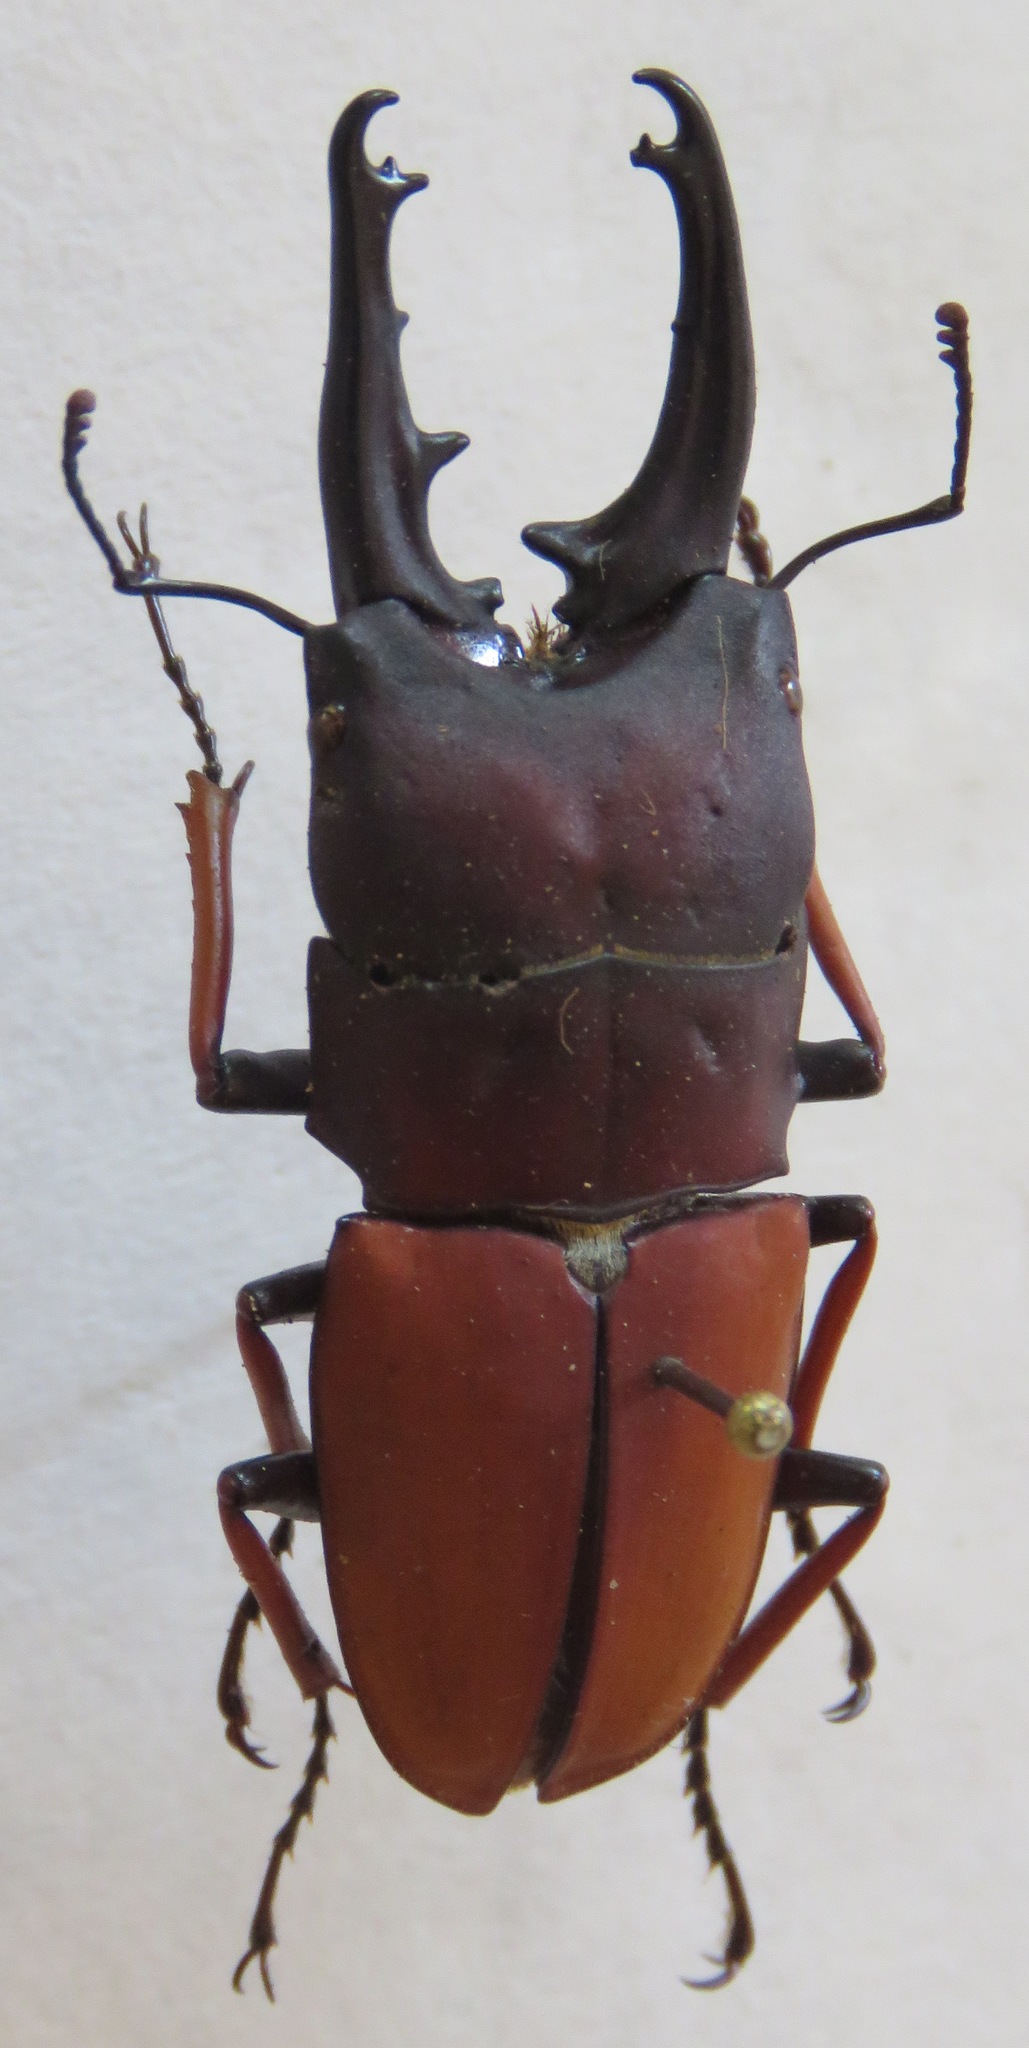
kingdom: Animalia
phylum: Arthropoda
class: Insecta
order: Coleoptera
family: Lucanidae
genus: Leptinopterus
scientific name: Leptinopterus tibialis
